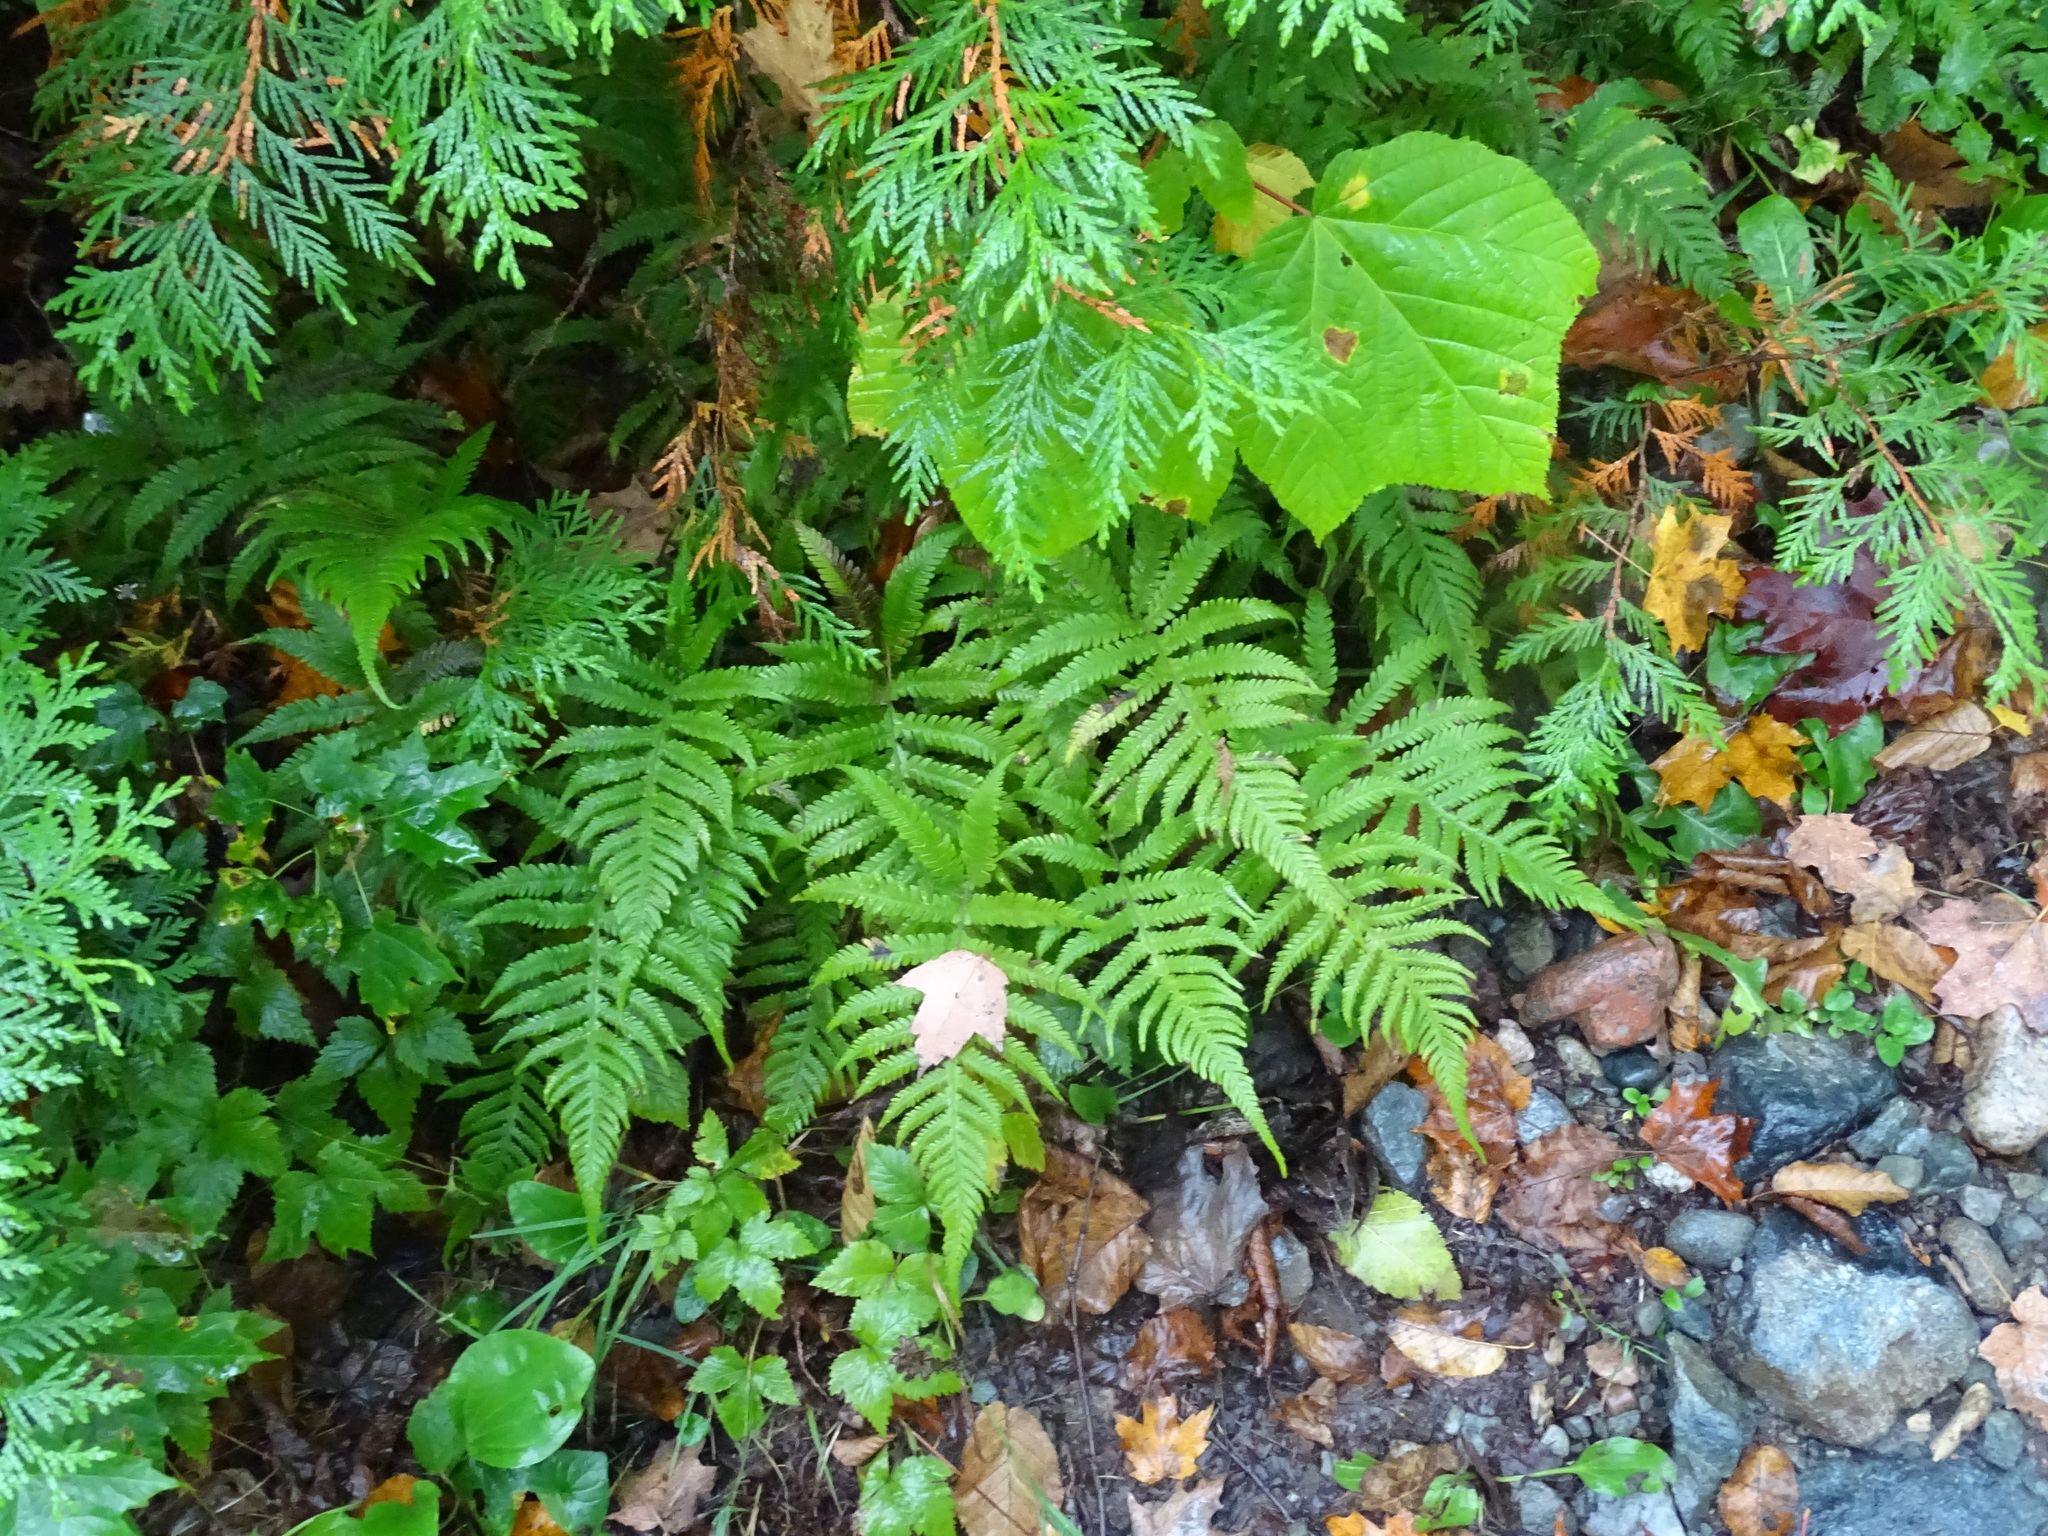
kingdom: Plantae
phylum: Tracheophyta
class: Polypodiopsida
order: Polypodiales
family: Thelypteridaceae
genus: Phegopteris
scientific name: Phegopteris connectilis
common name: Beech fern
